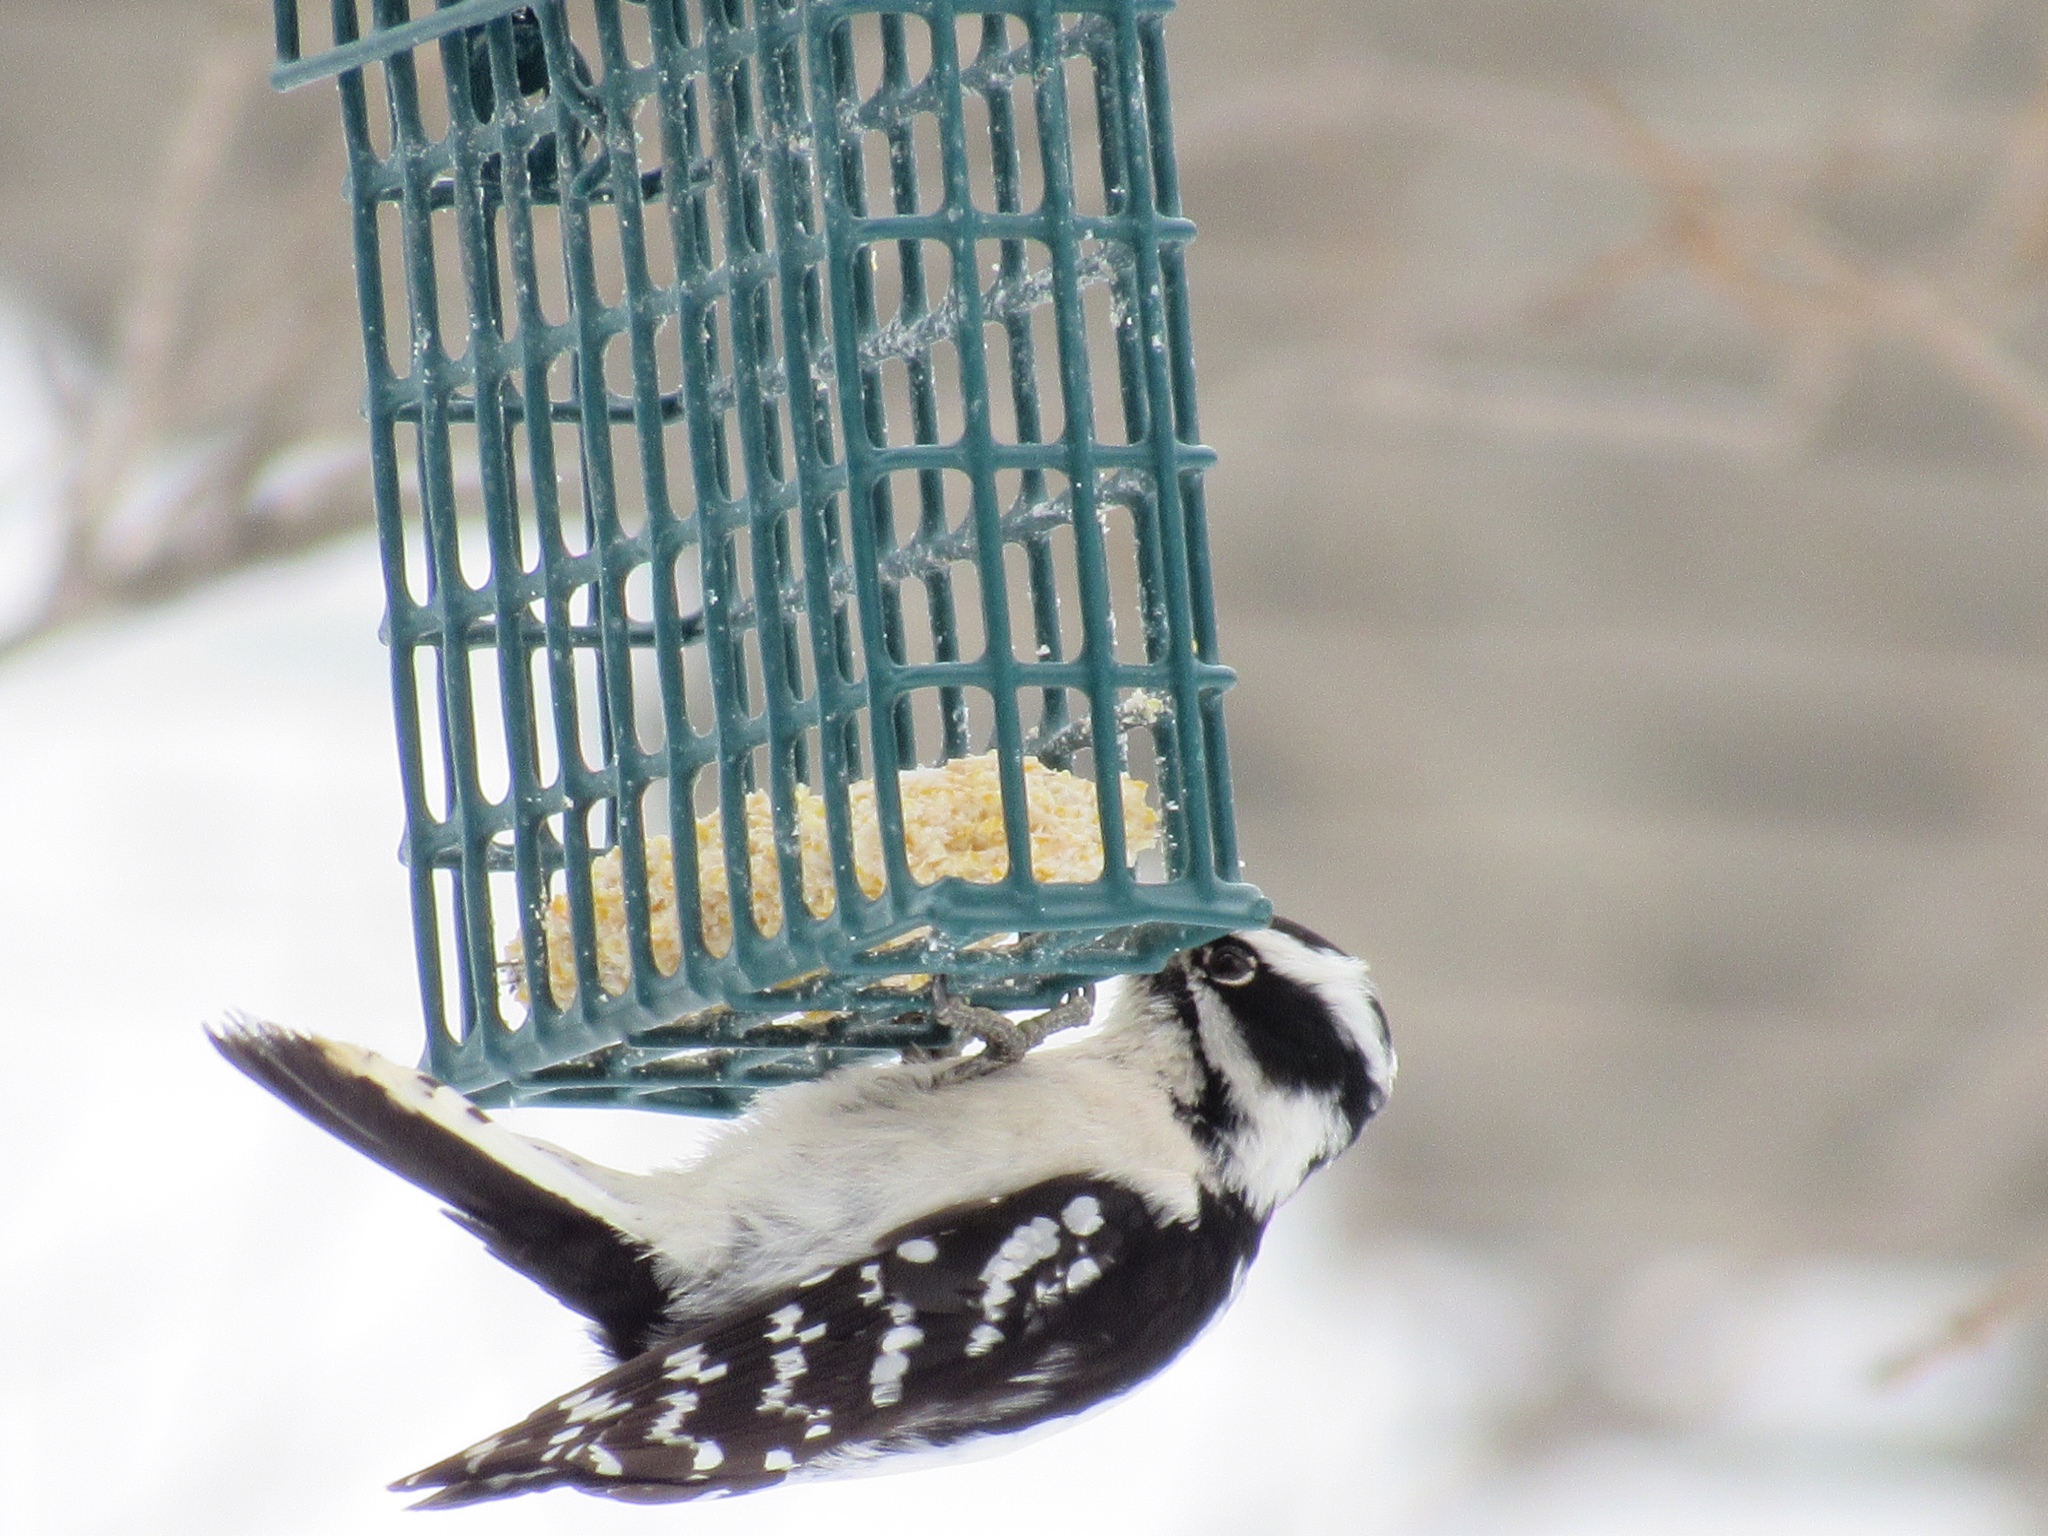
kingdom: Animalia
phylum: Chordata
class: Aves
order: Piciformes
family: Picidae
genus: Dryobates
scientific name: Dryobates pubescens
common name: Downy woodpecker
